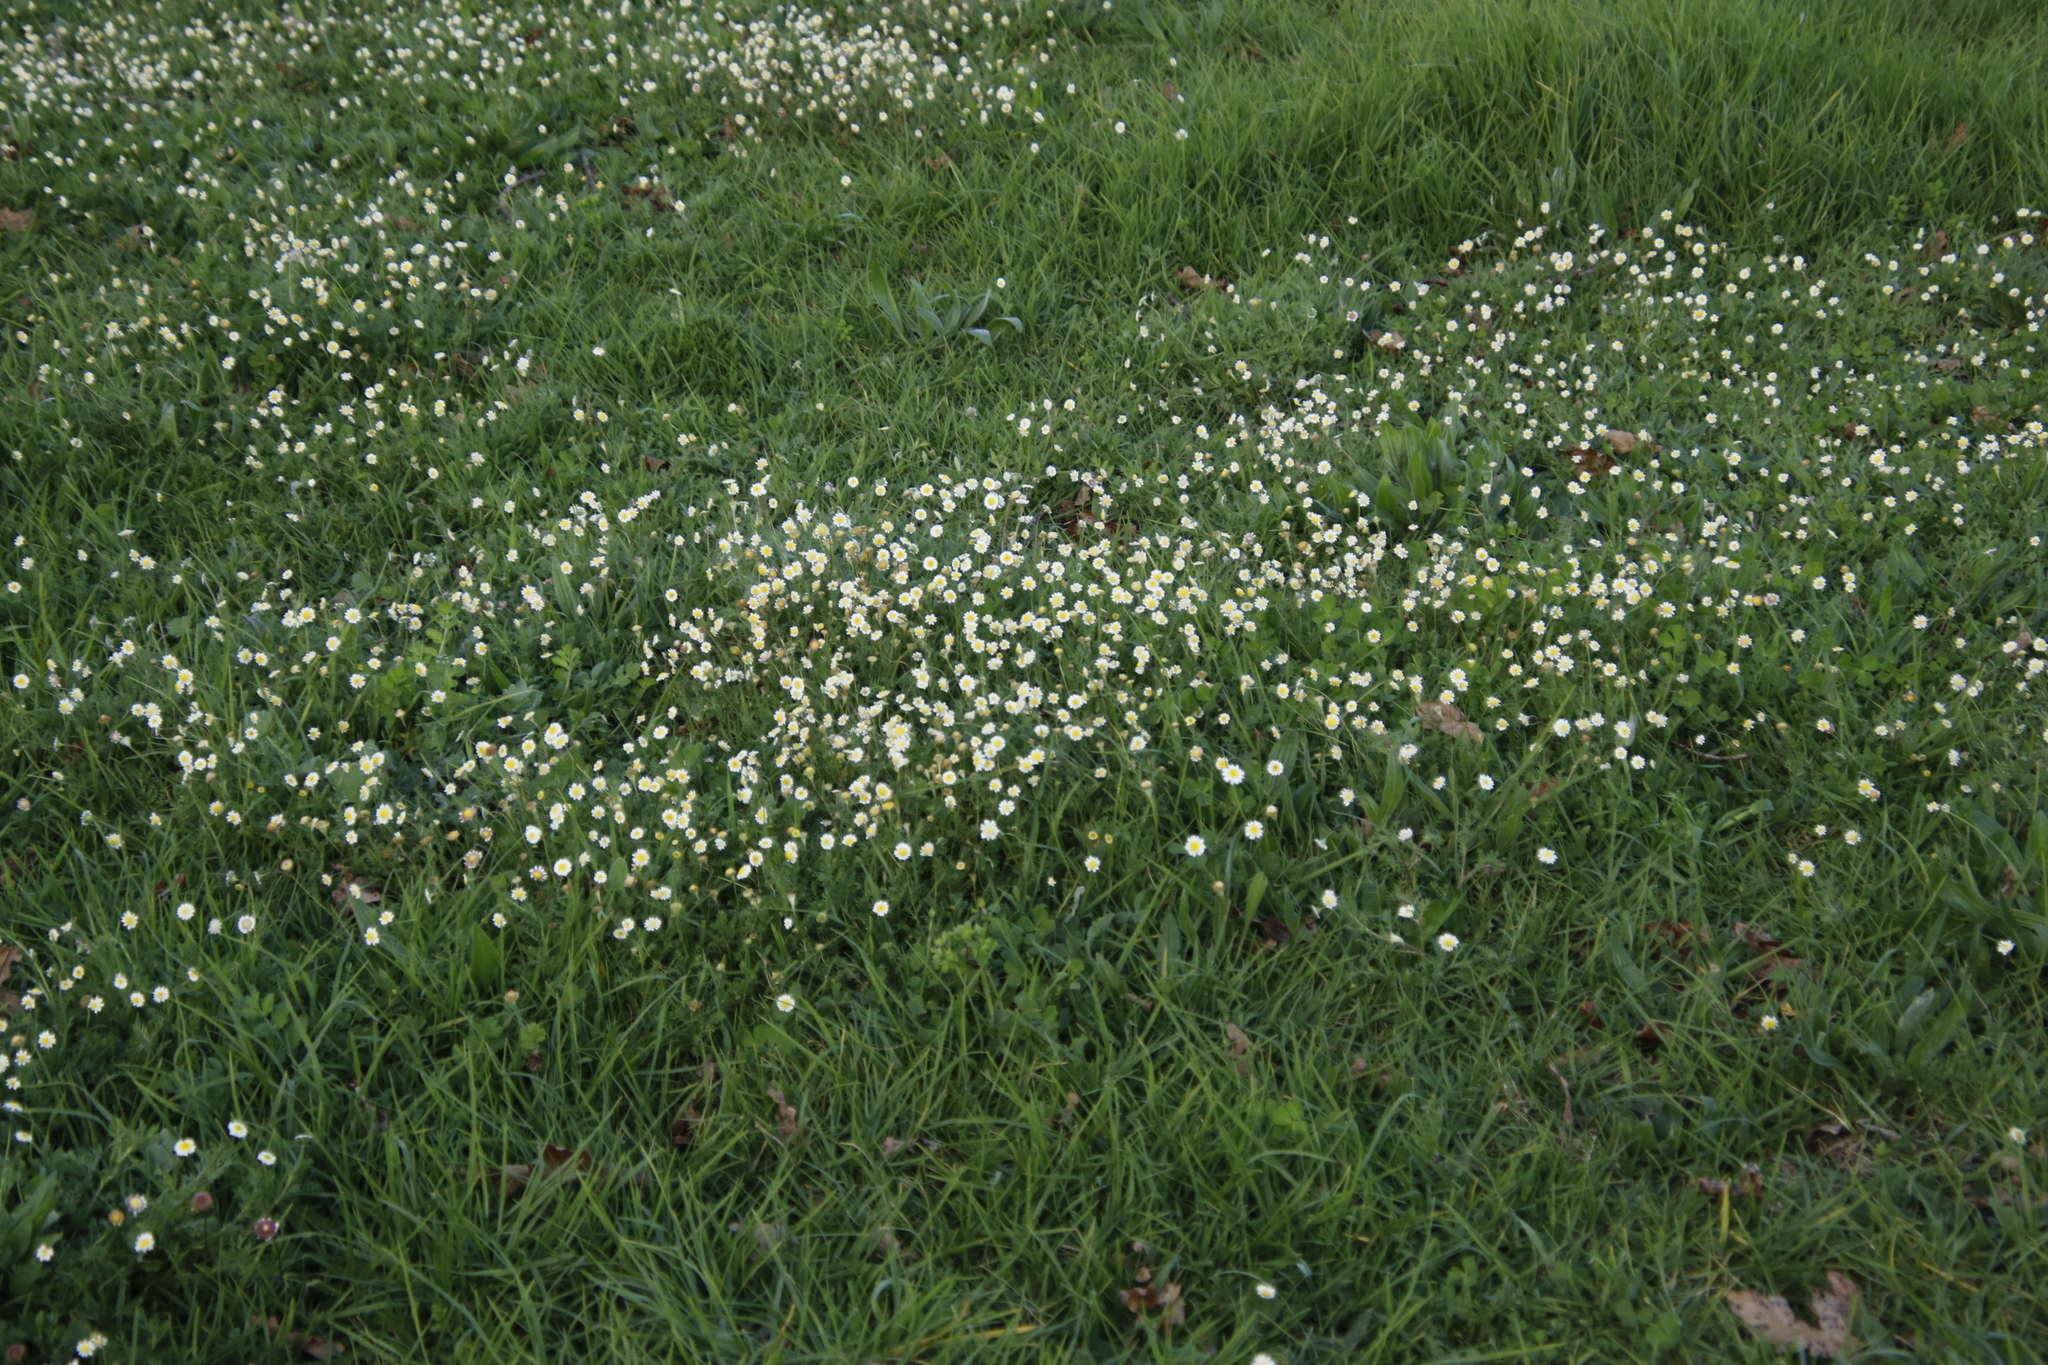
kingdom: Plantae
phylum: Tracheophyta
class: Magnoliopsida
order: Asterales
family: Asteraceae
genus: Cotula
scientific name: Cotula turbinata
